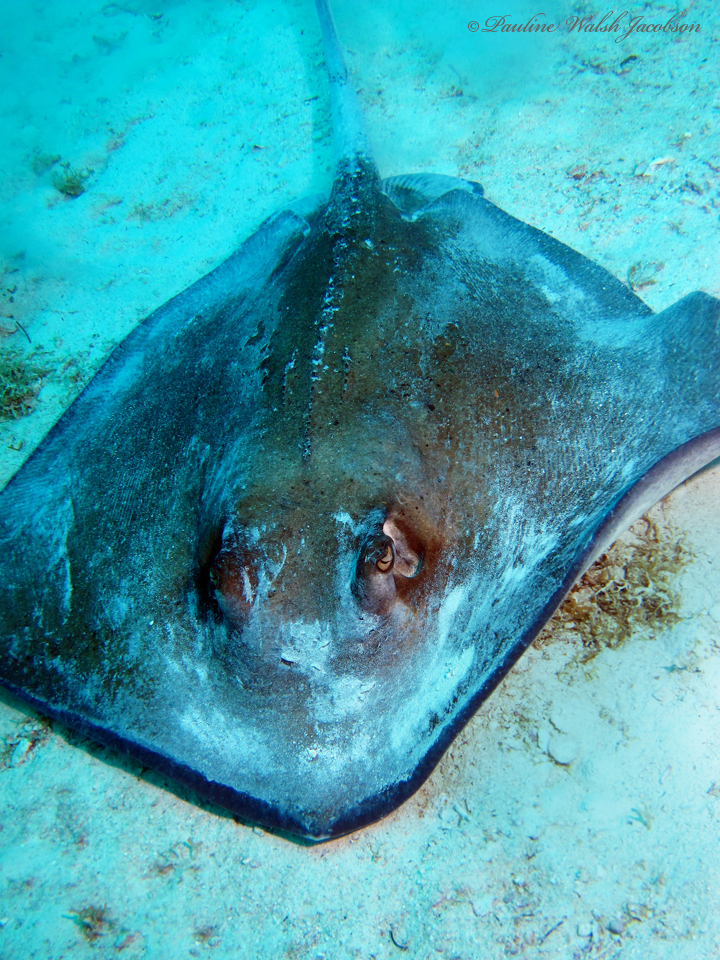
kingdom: Animalia
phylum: Chordata
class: Elasmobranchii
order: Myliobatiformes
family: Dasyatidae
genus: Hypanus
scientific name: Hypanus americanus
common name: Southern stingray
